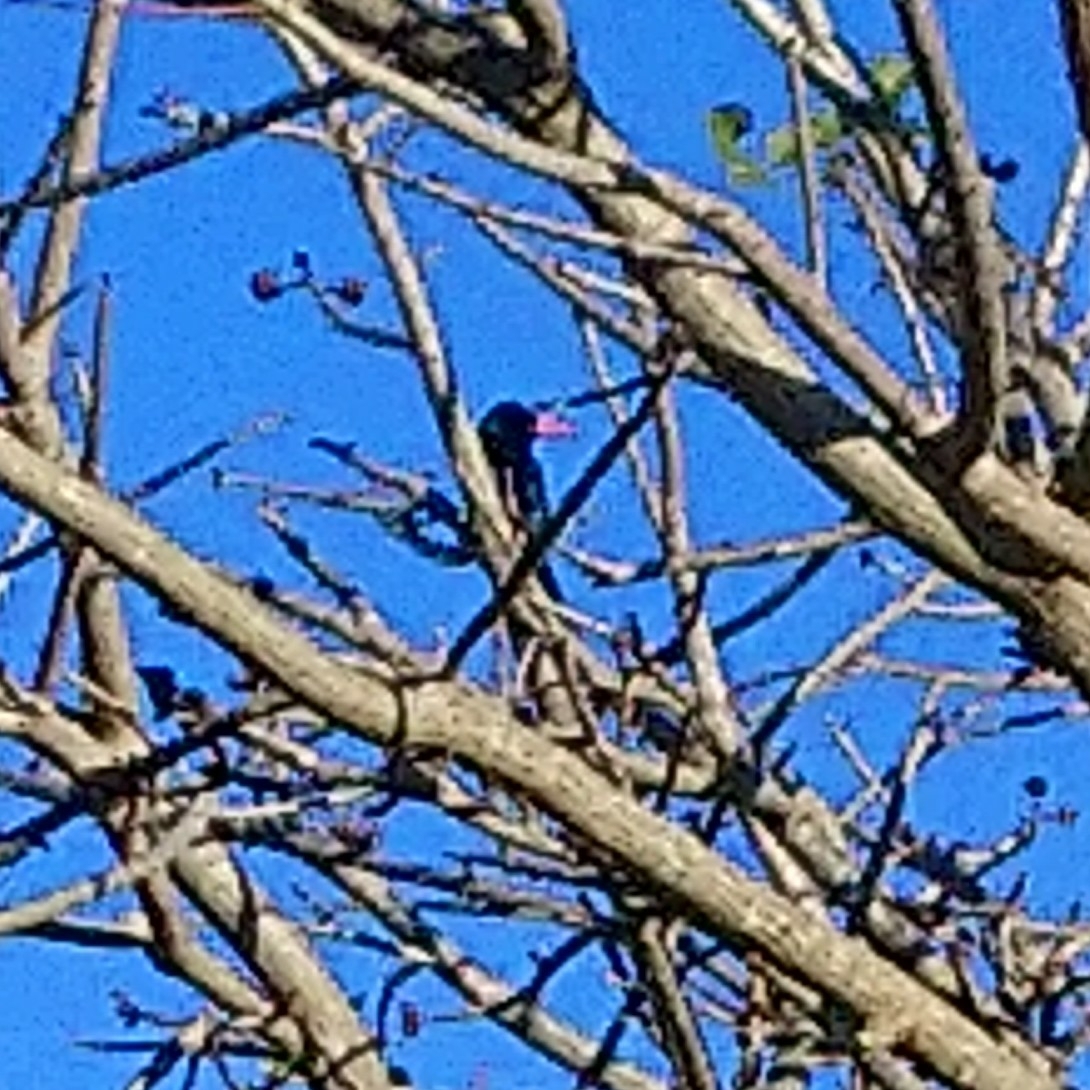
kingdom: Animalia
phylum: Chordata
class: Aves
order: Bucerotiformes
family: Phoeniculidae
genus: Phoeniculus
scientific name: Phoeniculus purpureus
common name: Green woodhoopoe
